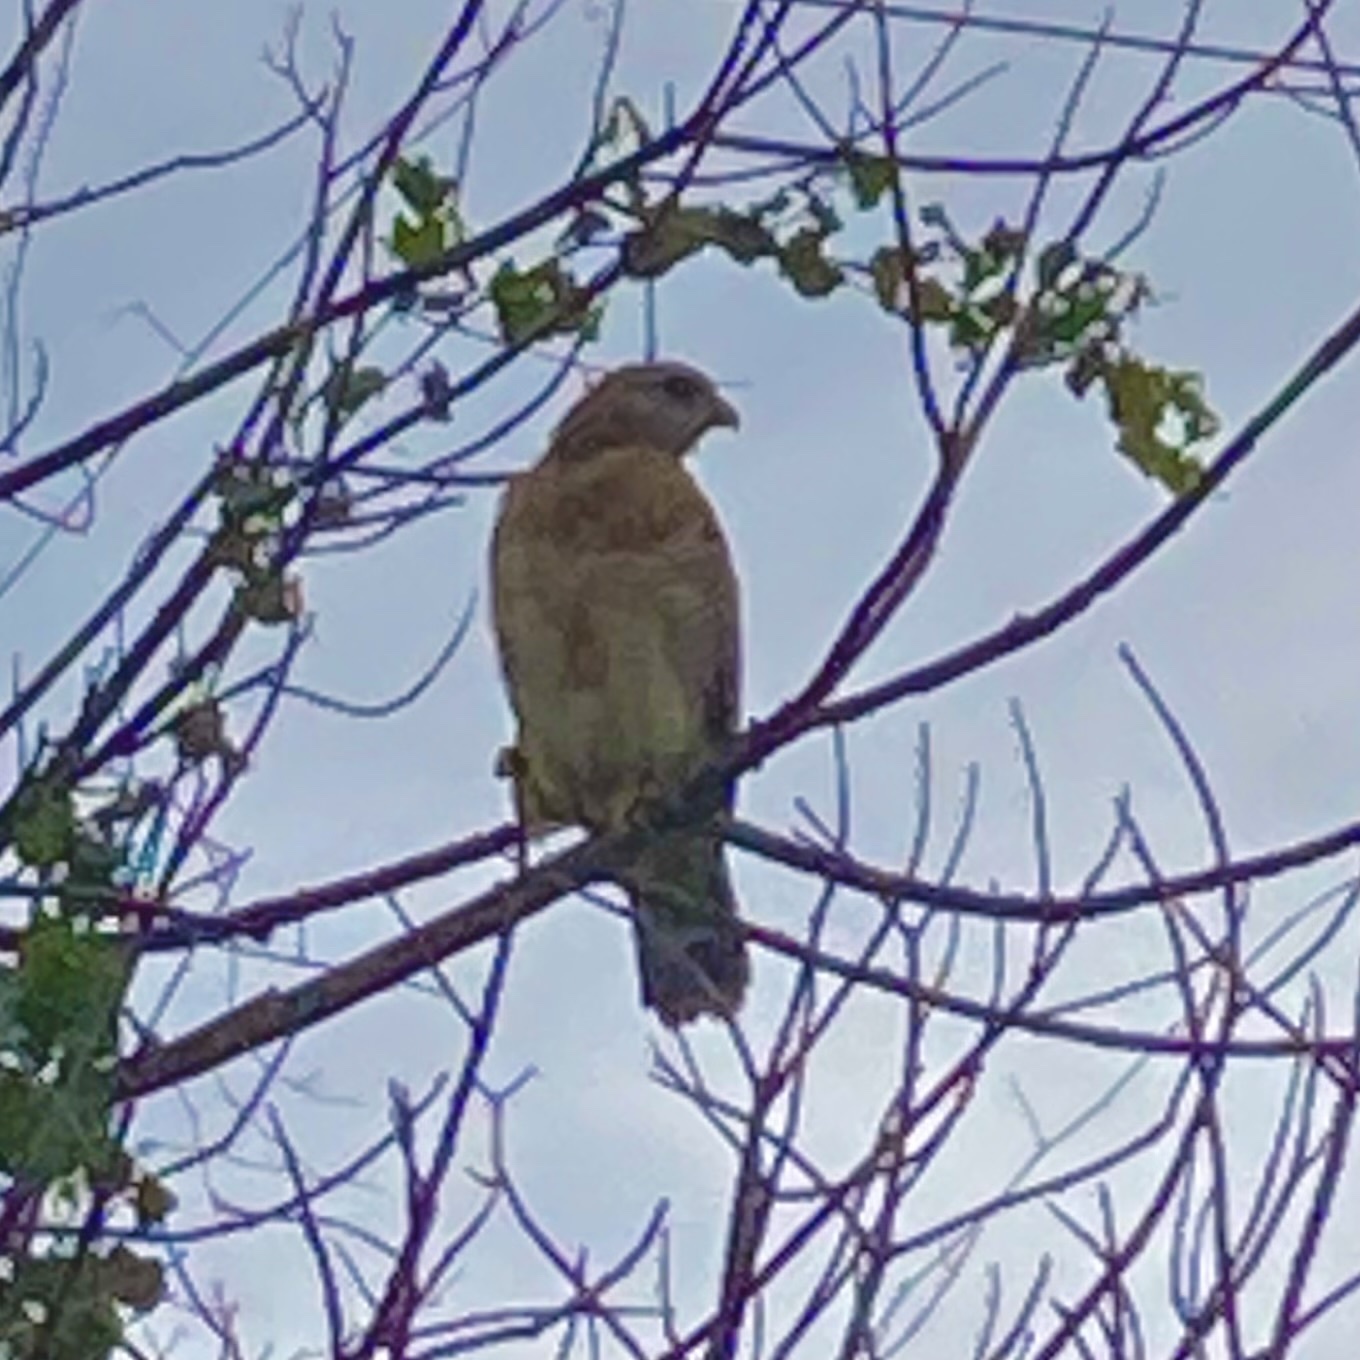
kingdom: Animalia
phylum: Chordata
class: Aves
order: Accipitriformes
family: Accipitridae
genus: Buteo
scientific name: Buteo lineatus
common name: Red-shouldered hawk
